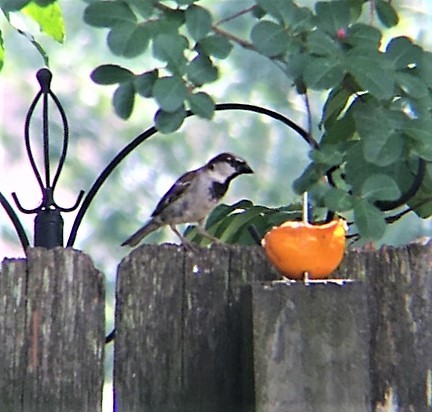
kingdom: Animalia
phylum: Chordata
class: Aves
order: Passeriformes
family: Passeridae
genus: Passer
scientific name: Passer domesticus
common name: House sparrow
